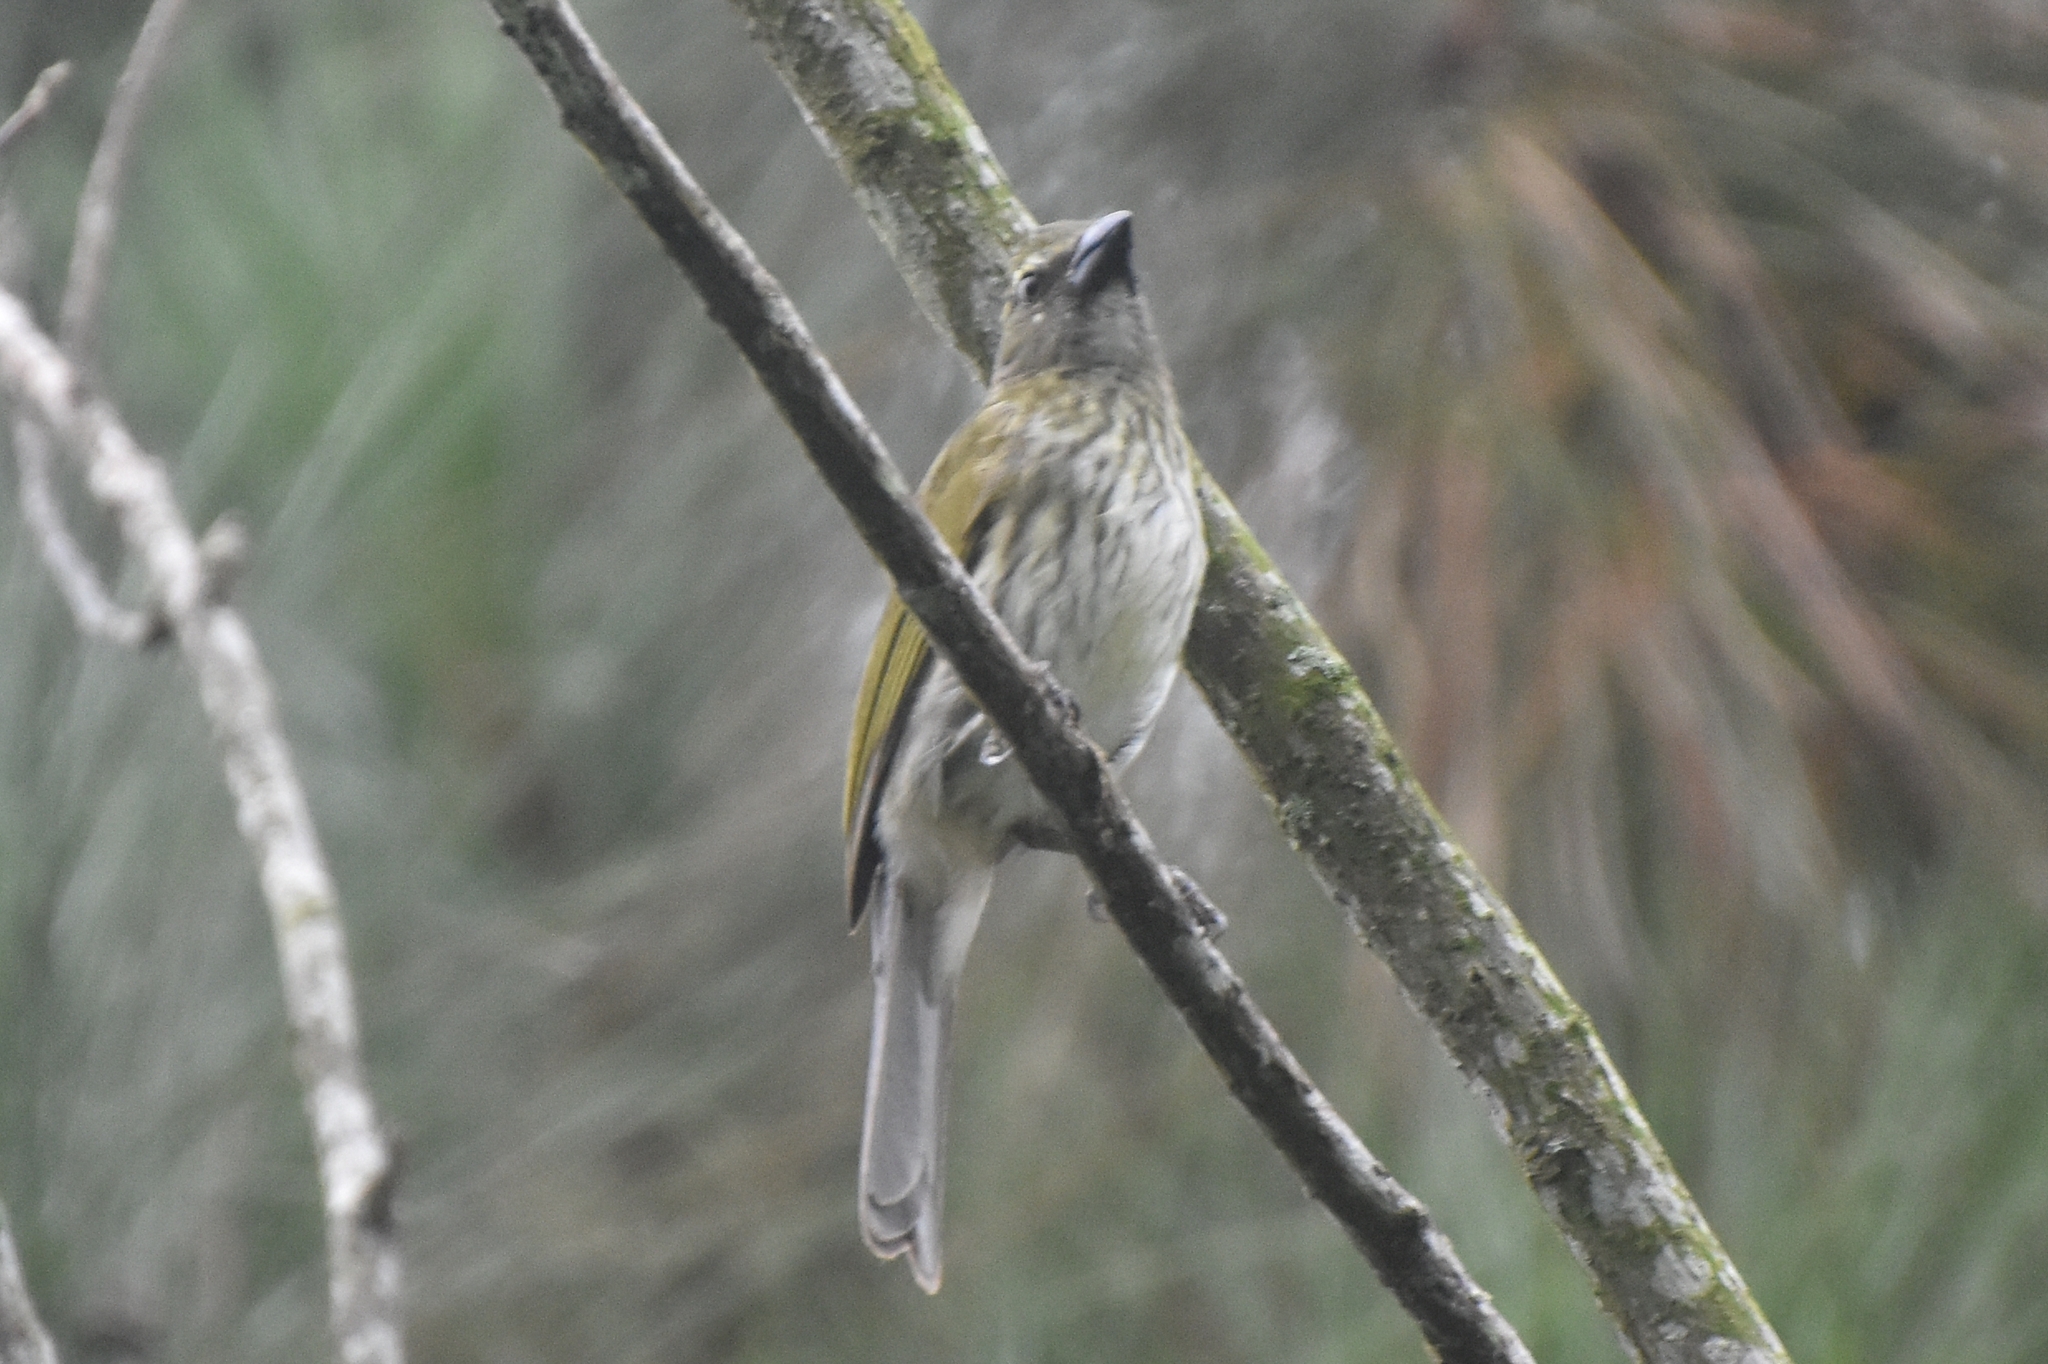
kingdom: Animalia
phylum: Chordata
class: Aves
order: Passeriformes
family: Thraupidae
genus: Saltator
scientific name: Saltator striatipectus
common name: Streaked saltator
